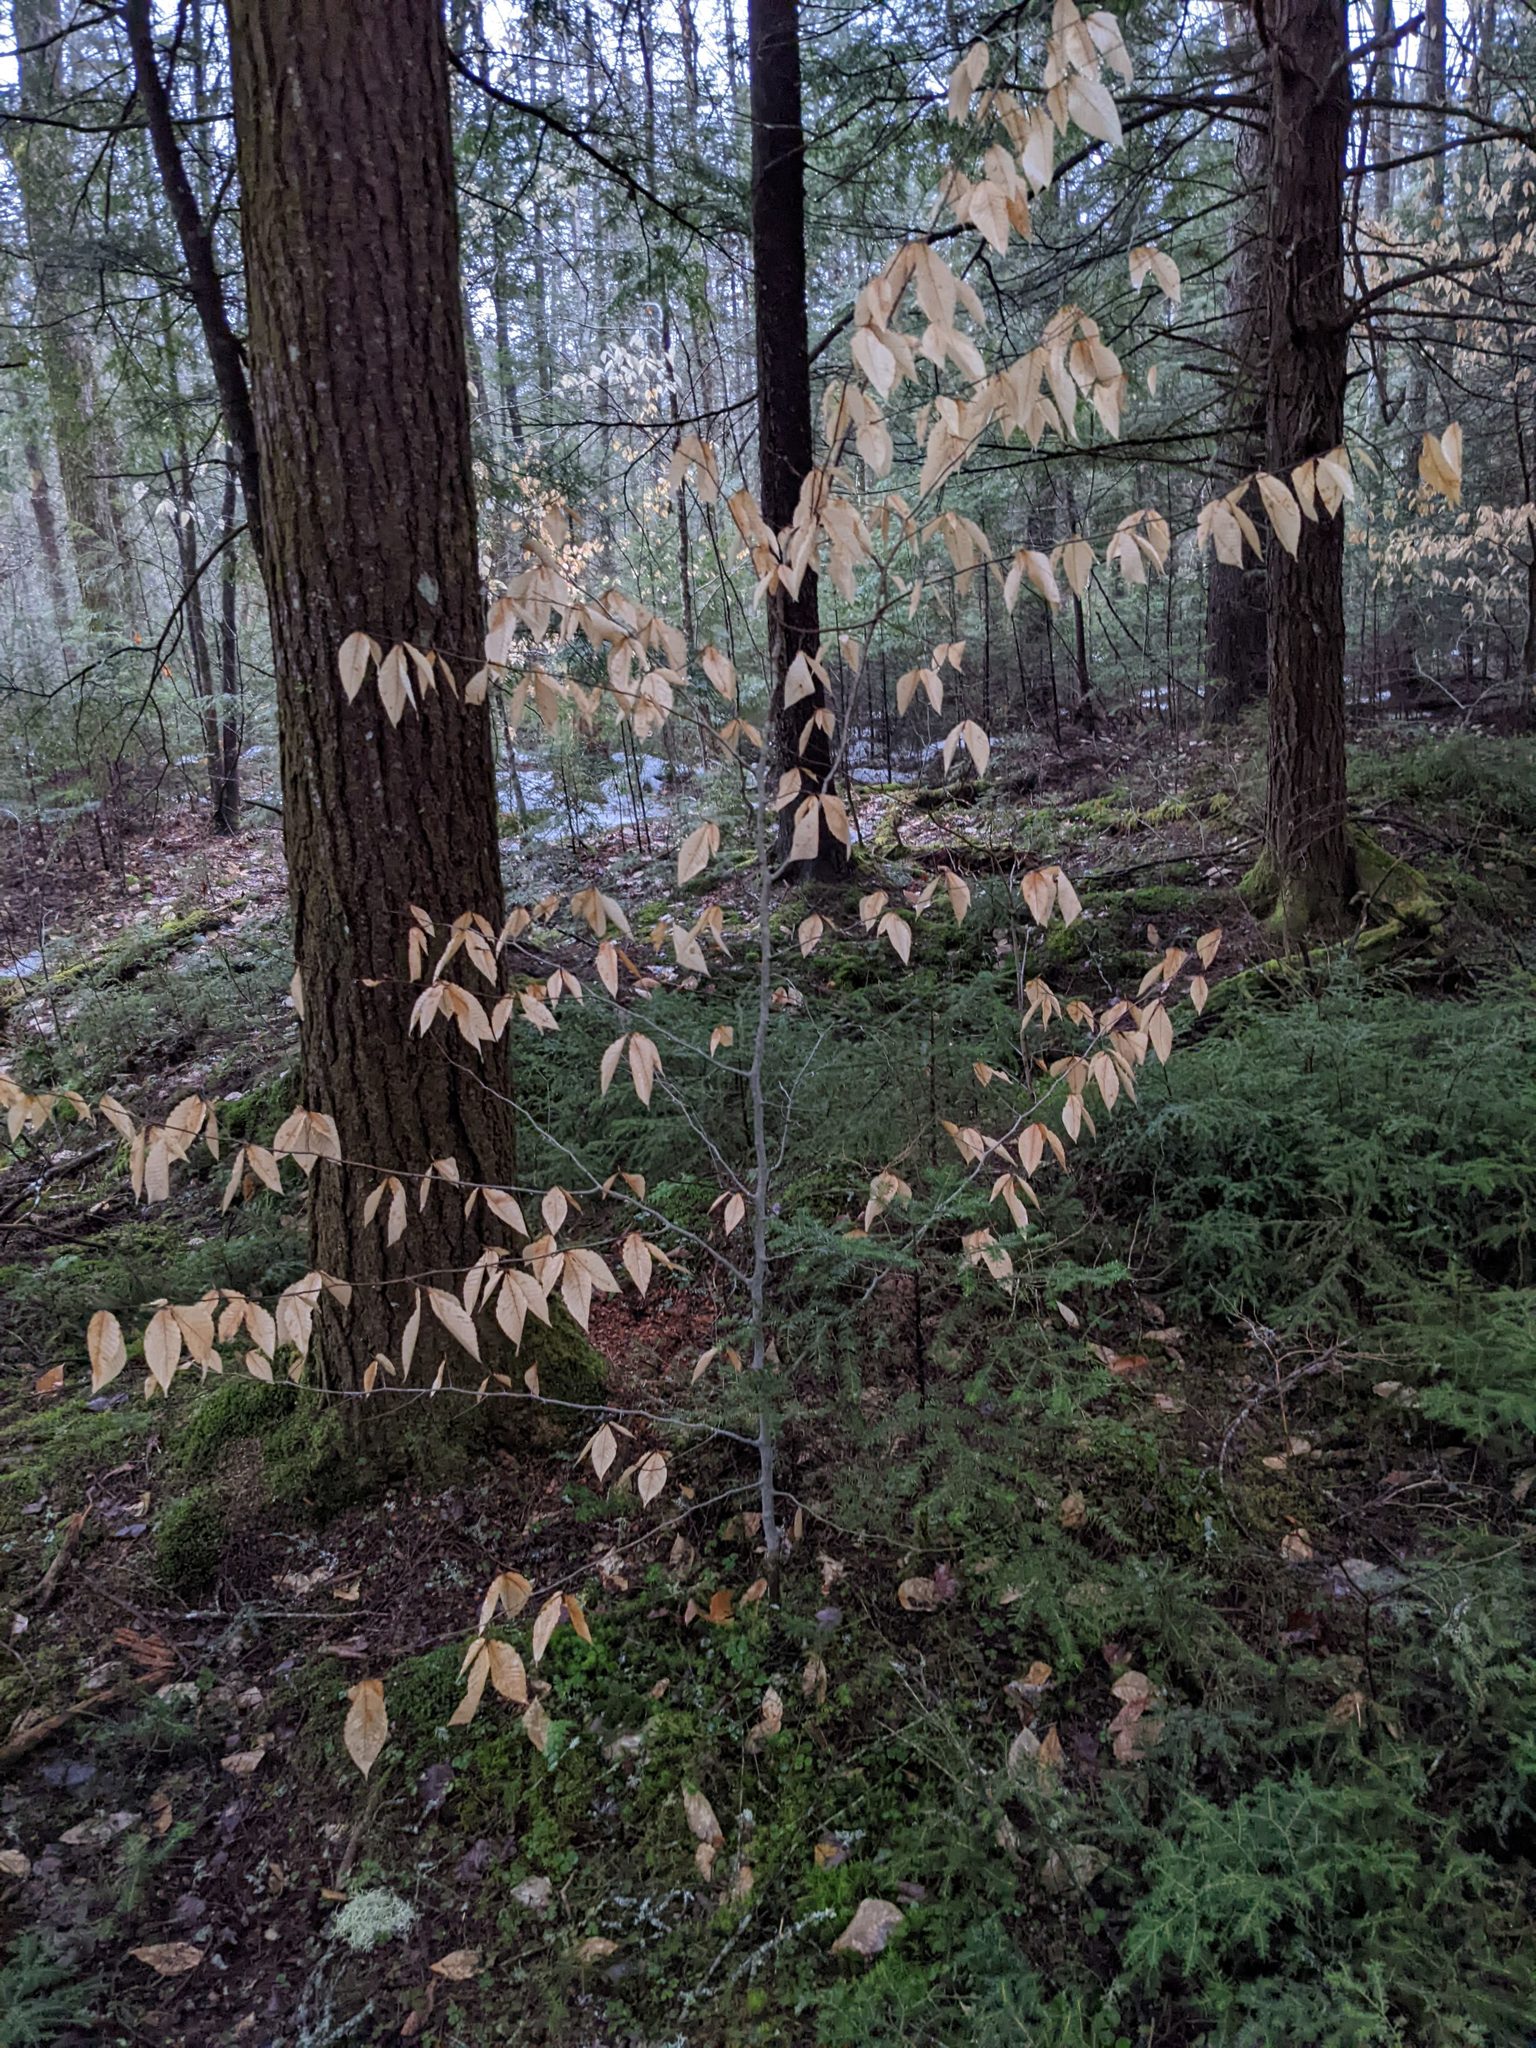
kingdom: Plantae
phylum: Tracheophyta
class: Magnoliopsida
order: Fagales
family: Fagaceae
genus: Fagus
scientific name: Fagus grandifolia
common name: American beech
